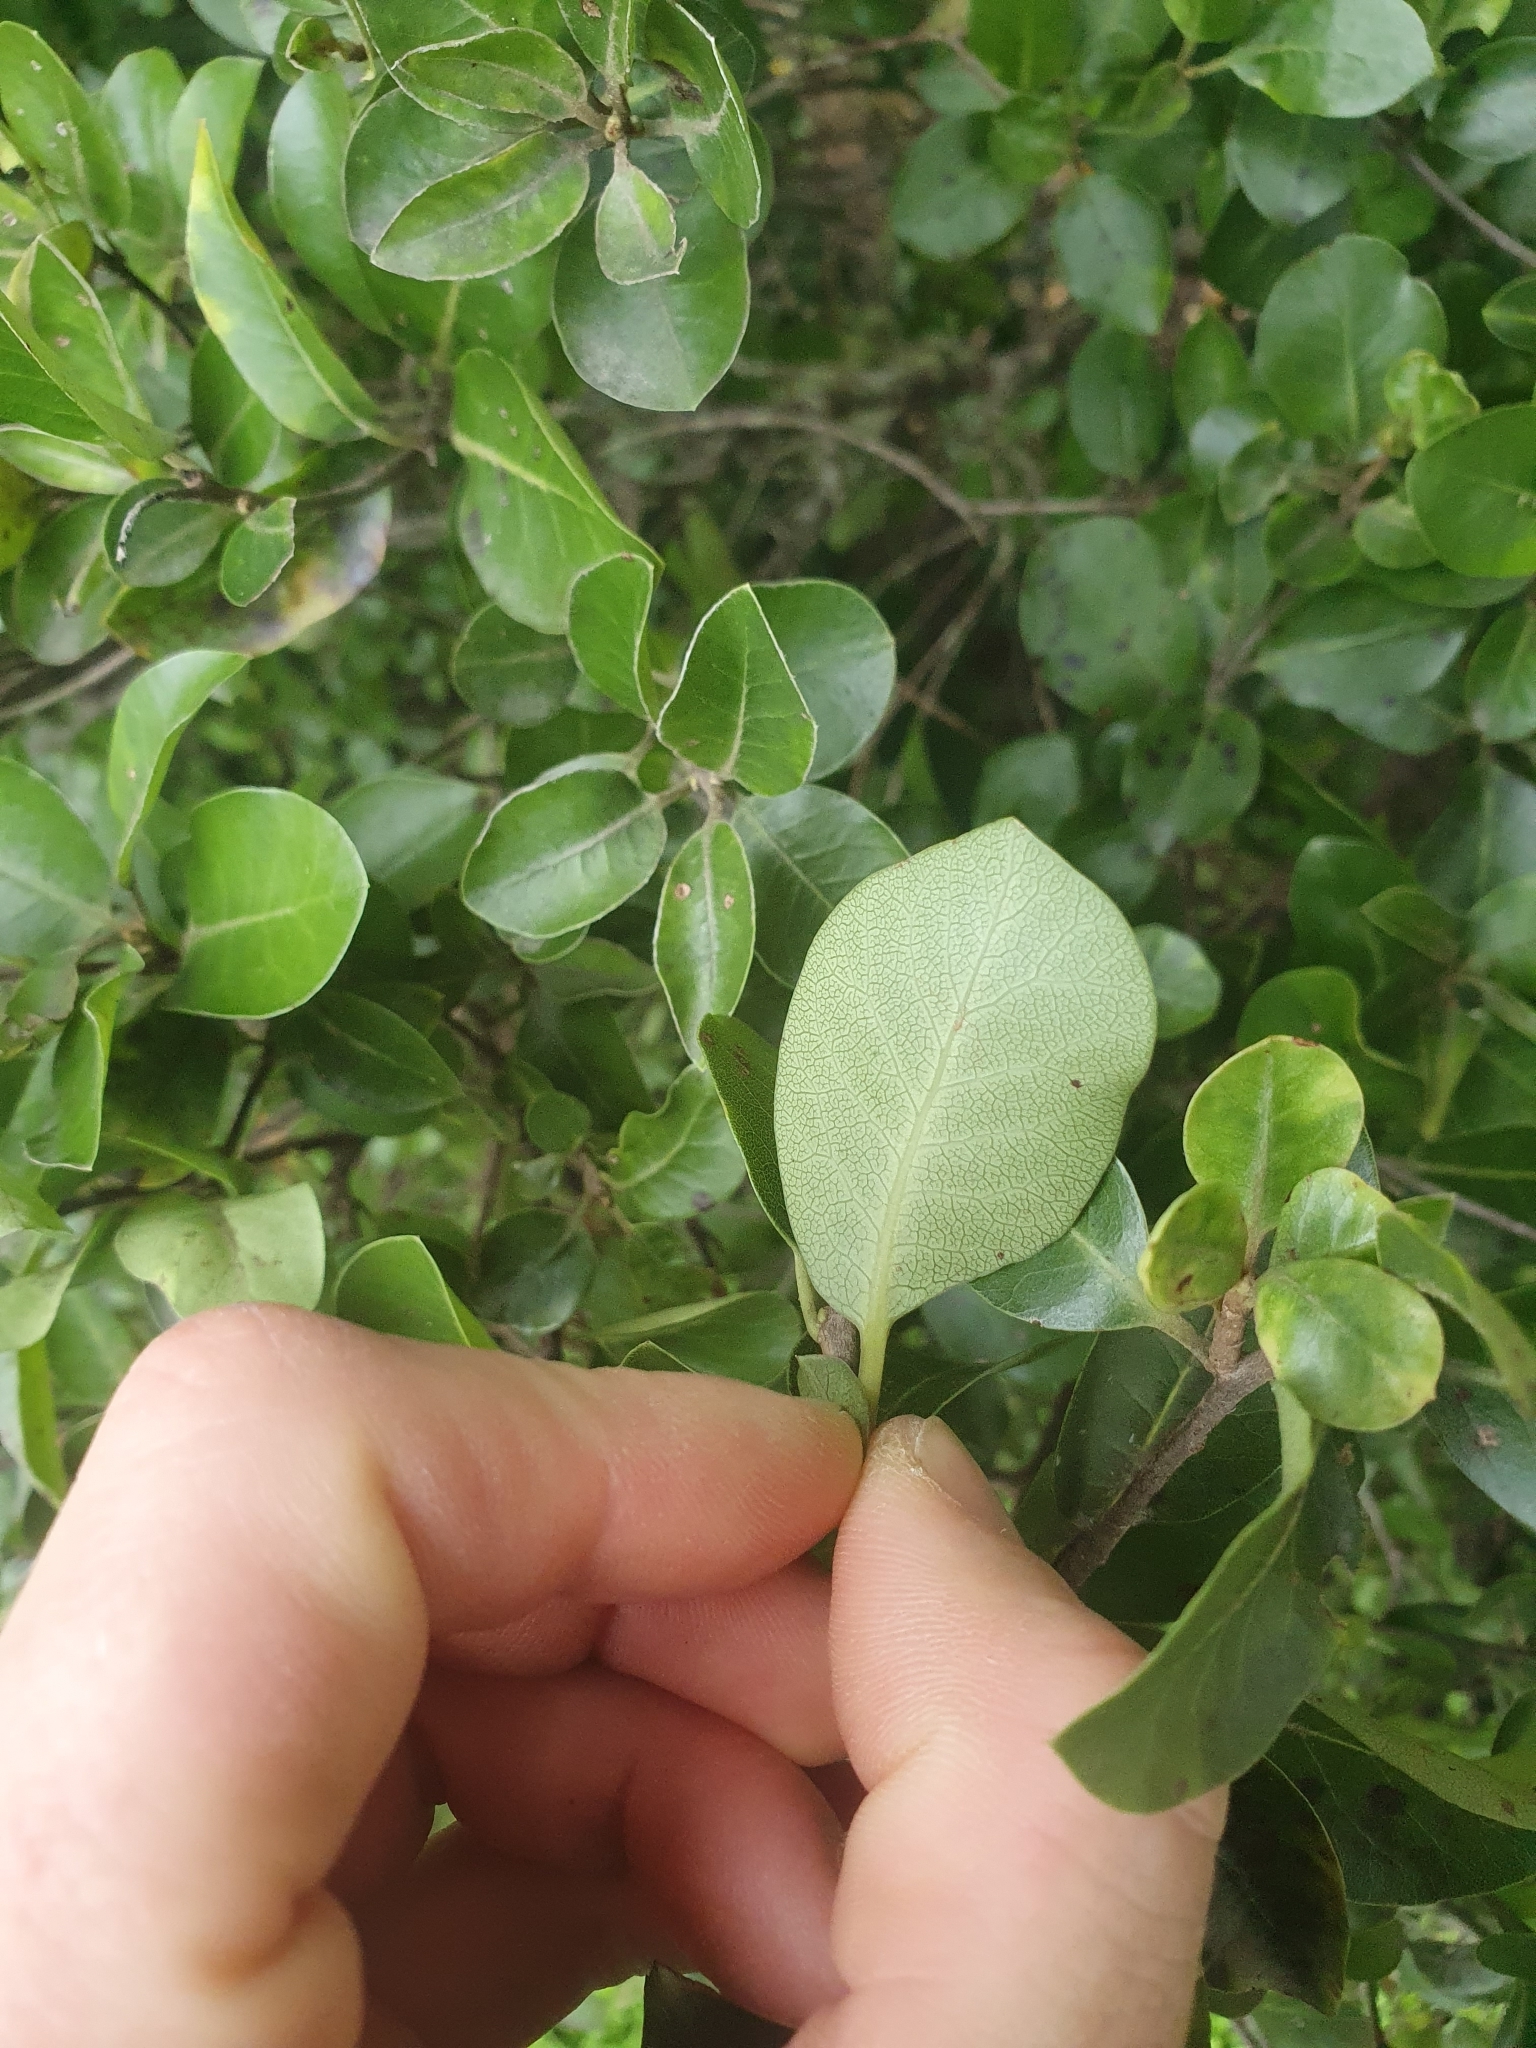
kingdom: Plantae
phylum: Tracheophyta
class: Magnoliopsida
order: Apiales
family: Pittosporaceae
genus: Pittosporum
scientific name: Pittosporum tenuifolium
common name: Kohuhu
